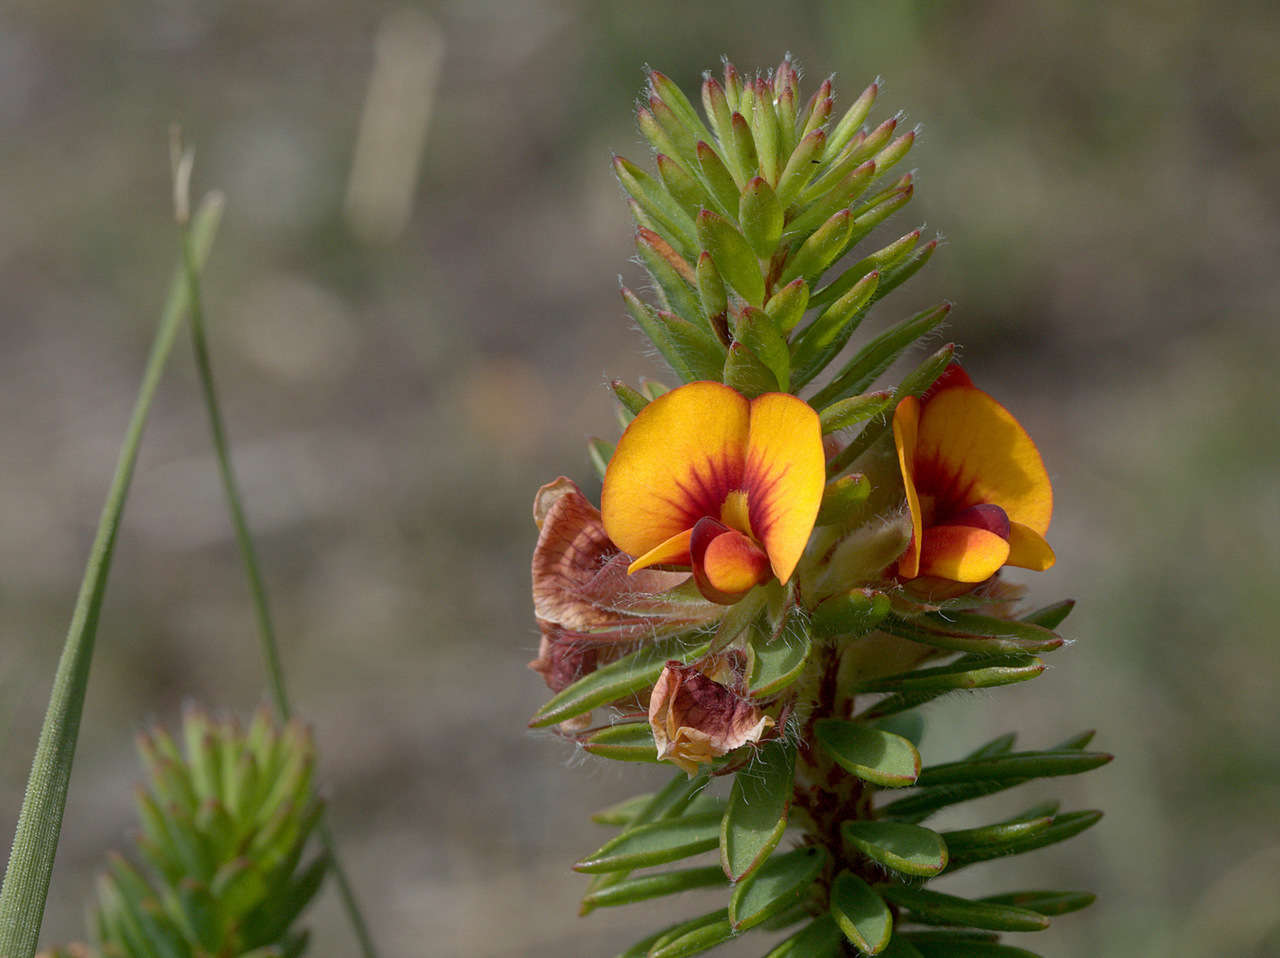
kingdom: Plantae
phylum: Tracheophyta
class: Magnoliopsida
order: Fabales
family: Fabaceae
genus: Pultenaea
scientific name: Pultenaea humilis
